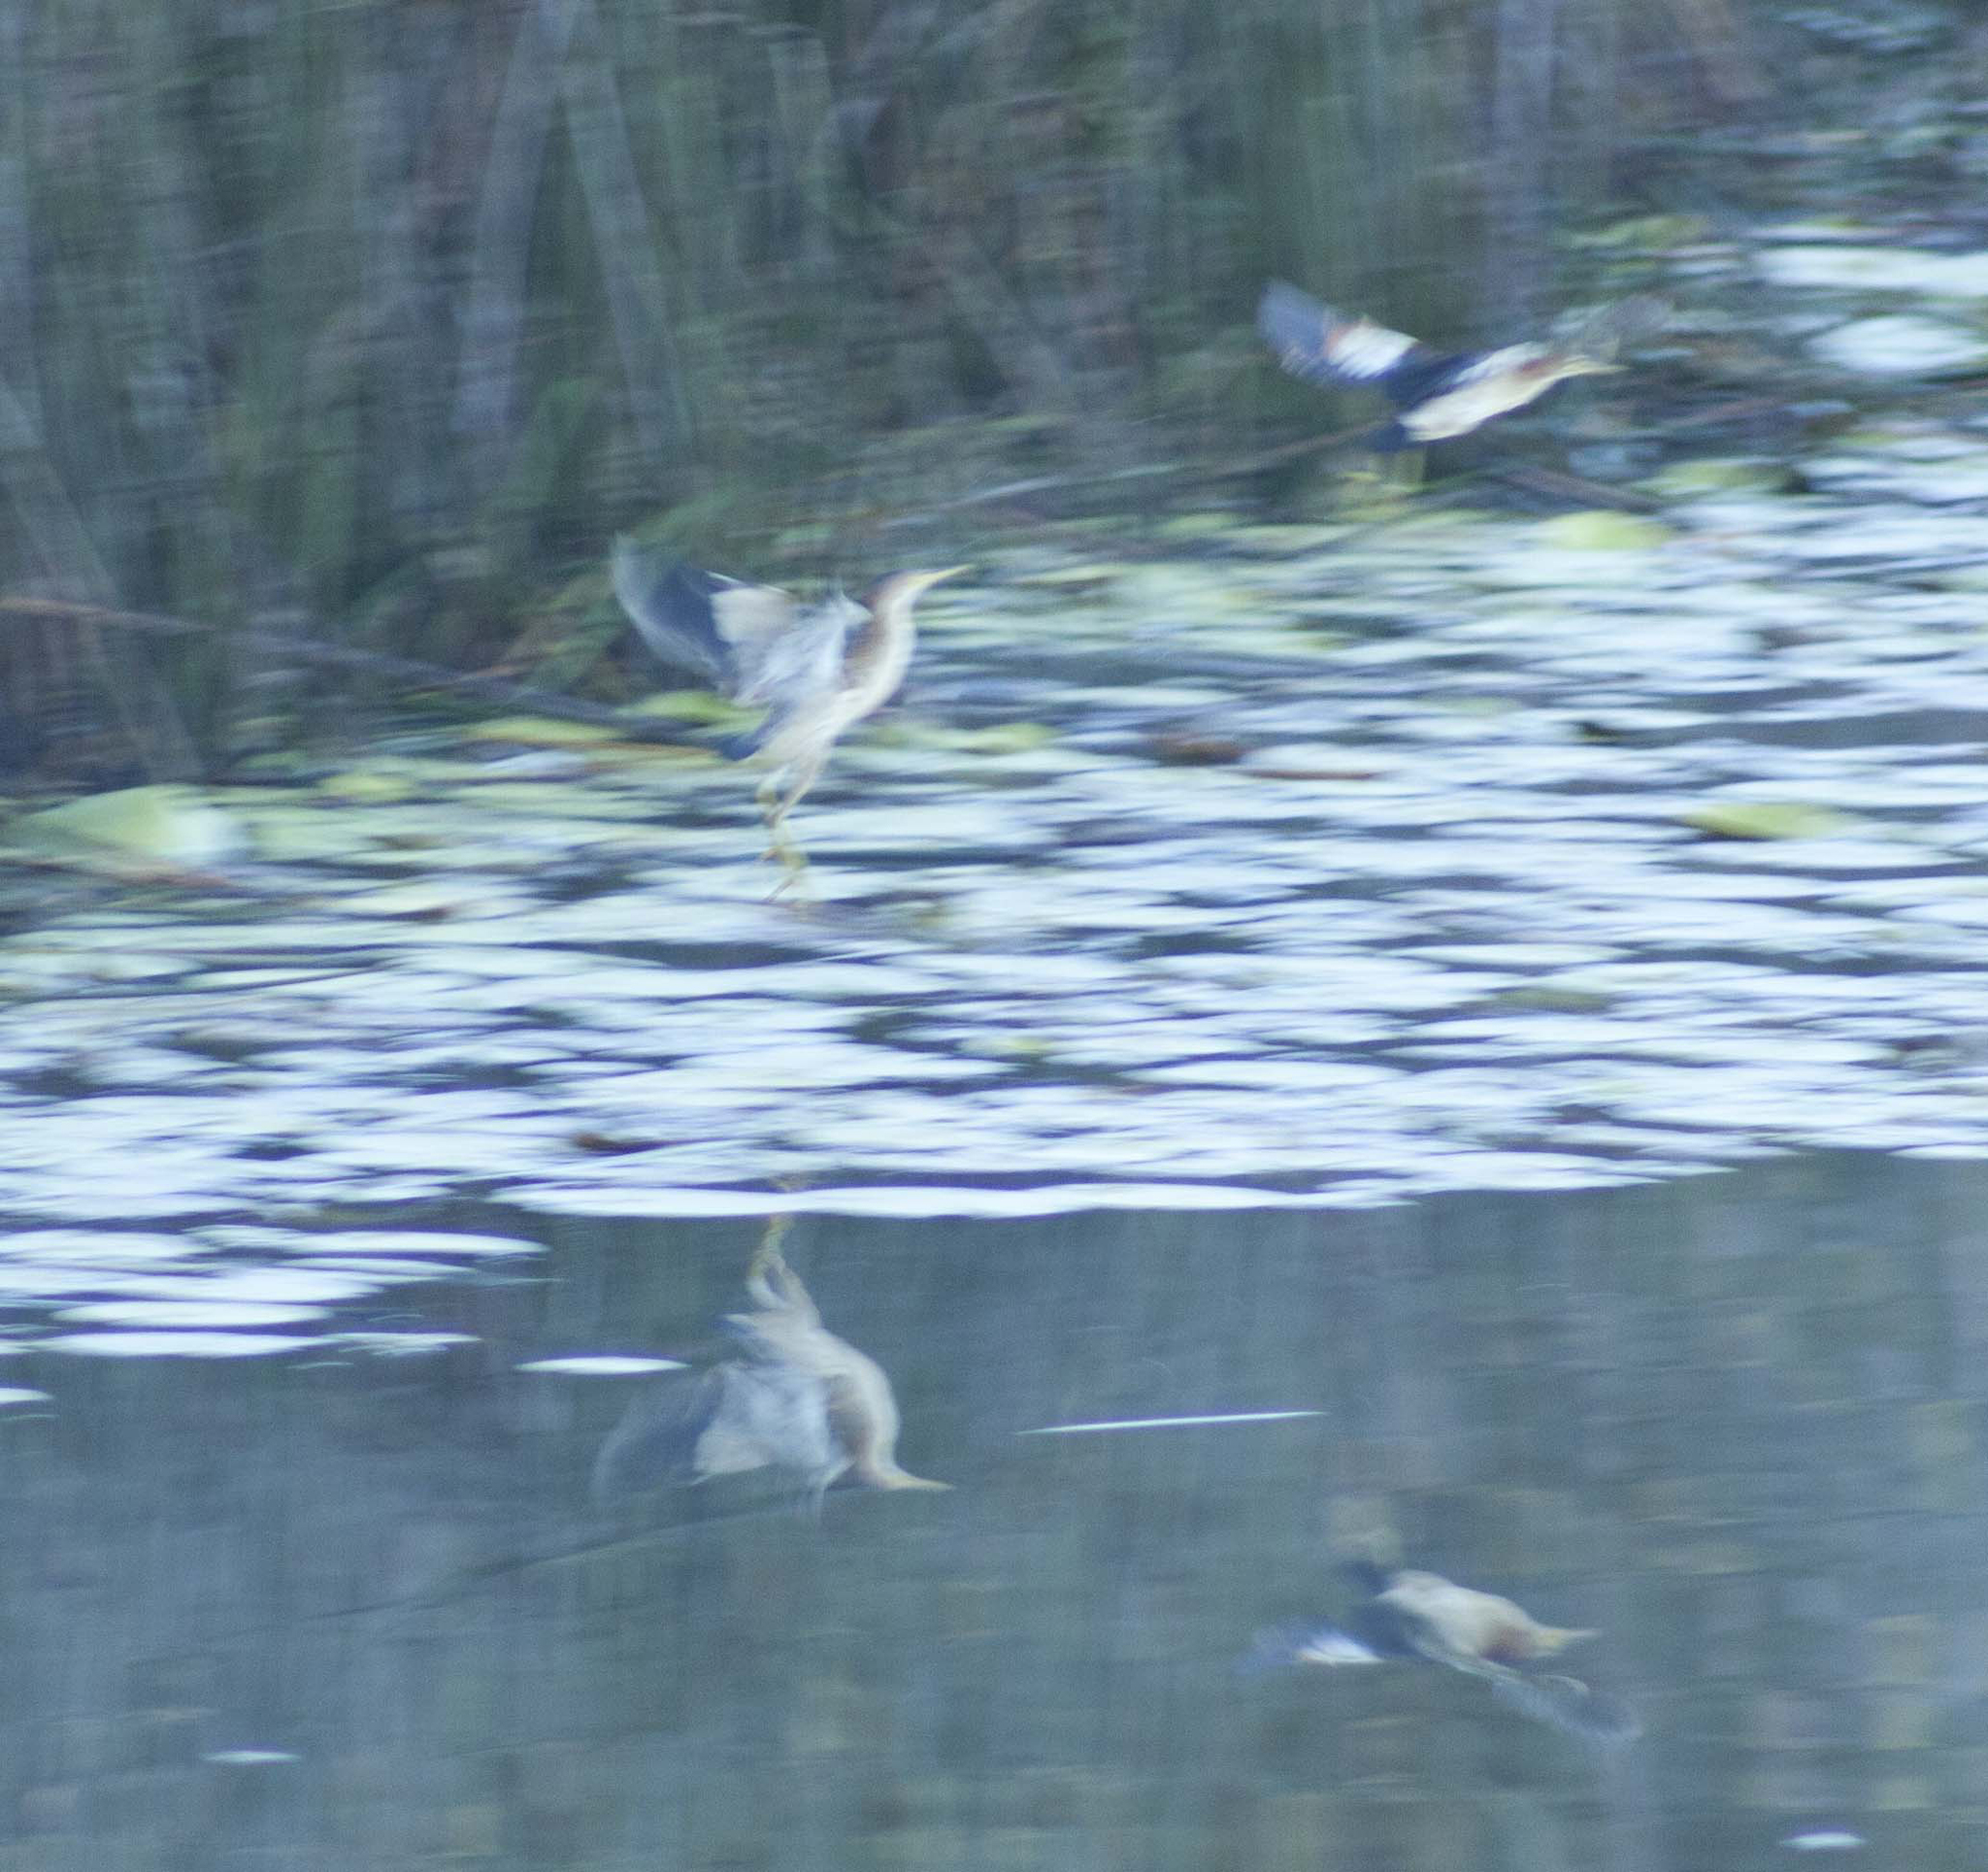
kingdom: Animalia
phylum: Chordata
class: Aves
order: Pelecaniformes
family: Ardeidae
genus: Ixobrychus
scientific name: Ixobrychus sinensis
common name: Yellow bittern
